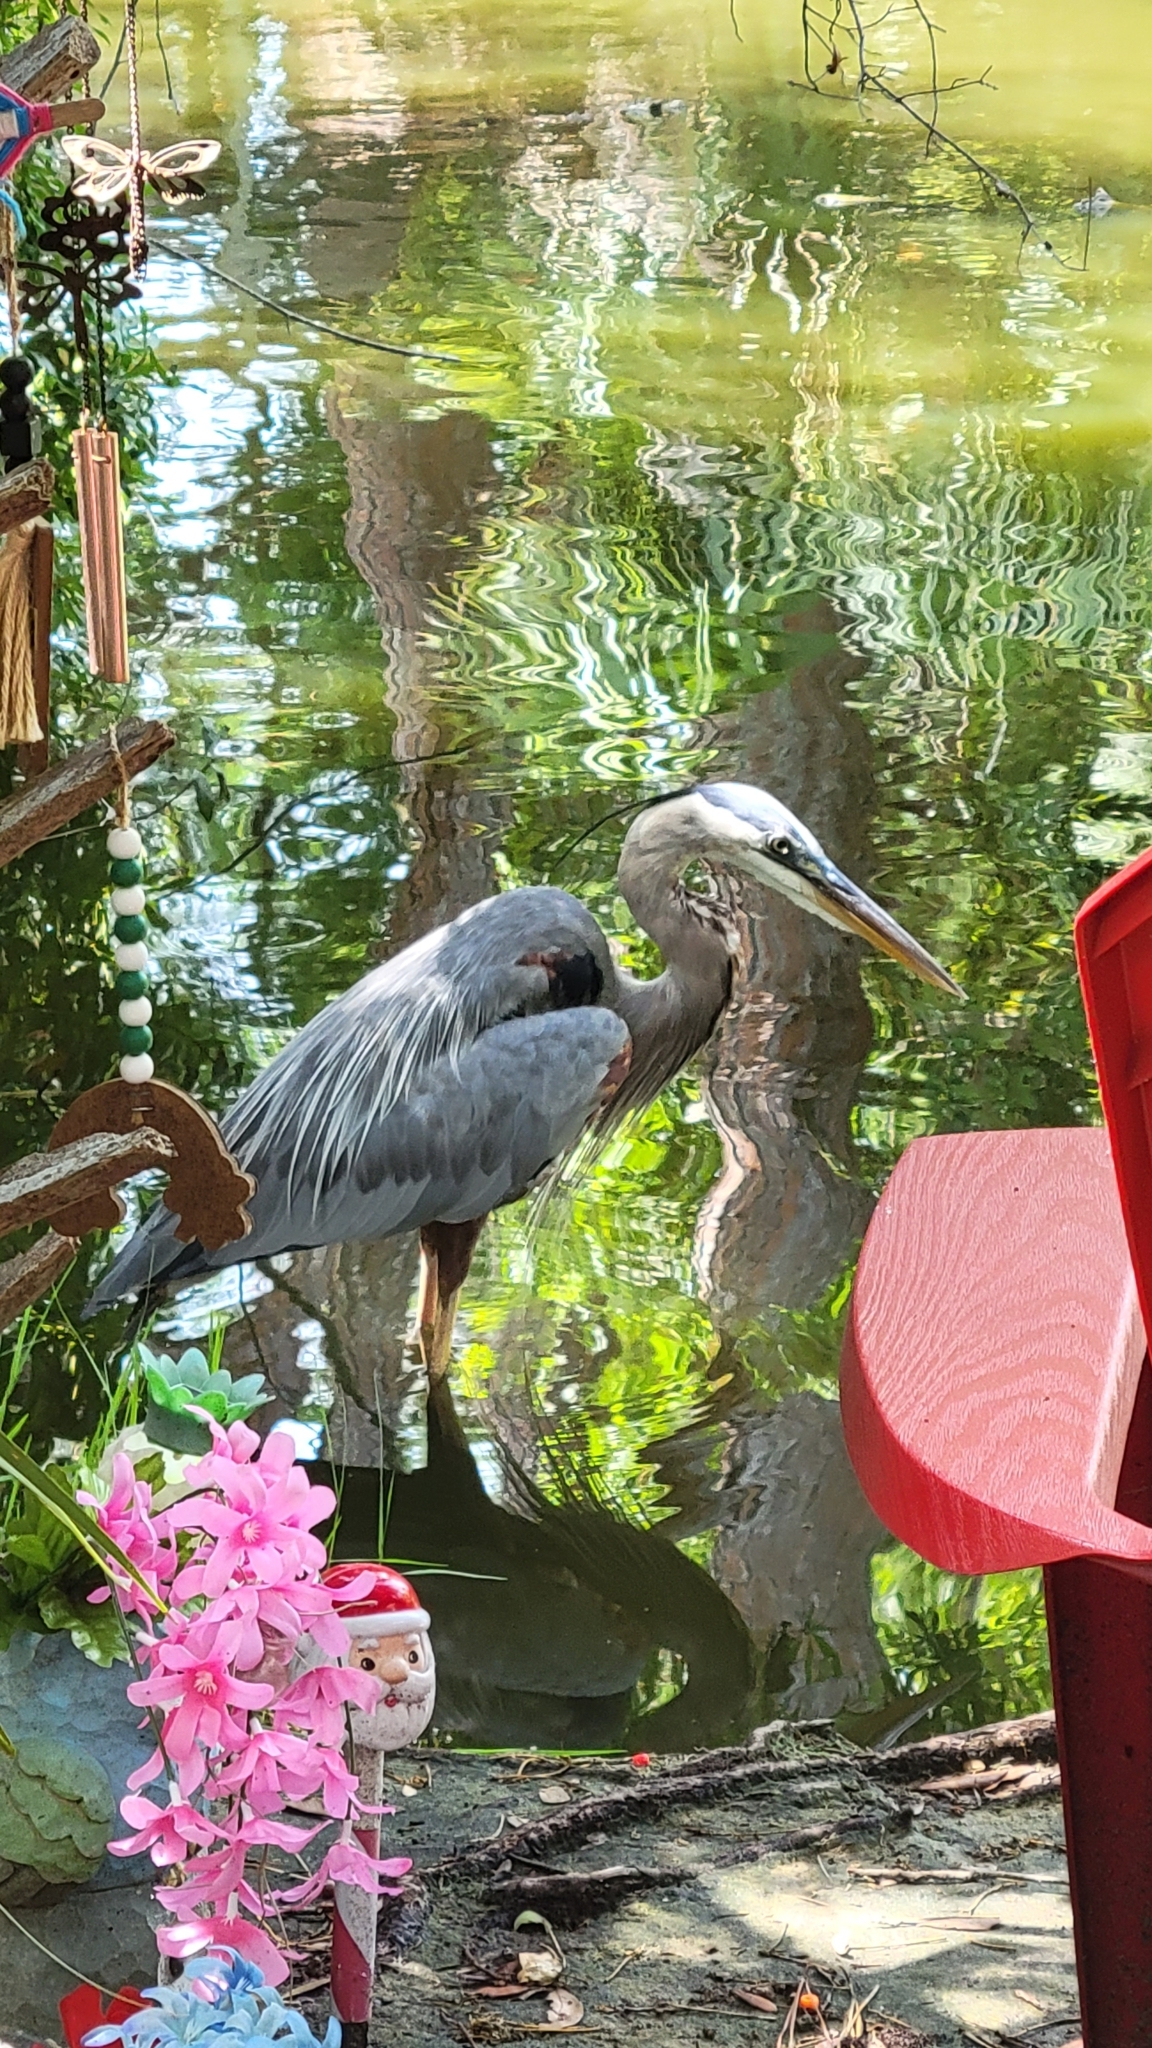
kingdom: Animalia
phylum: Chordata
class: Aves
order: Pelecaniformes
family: Ardeidae
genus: Ardea
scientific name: Ardea herodias
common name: Great blue heron
